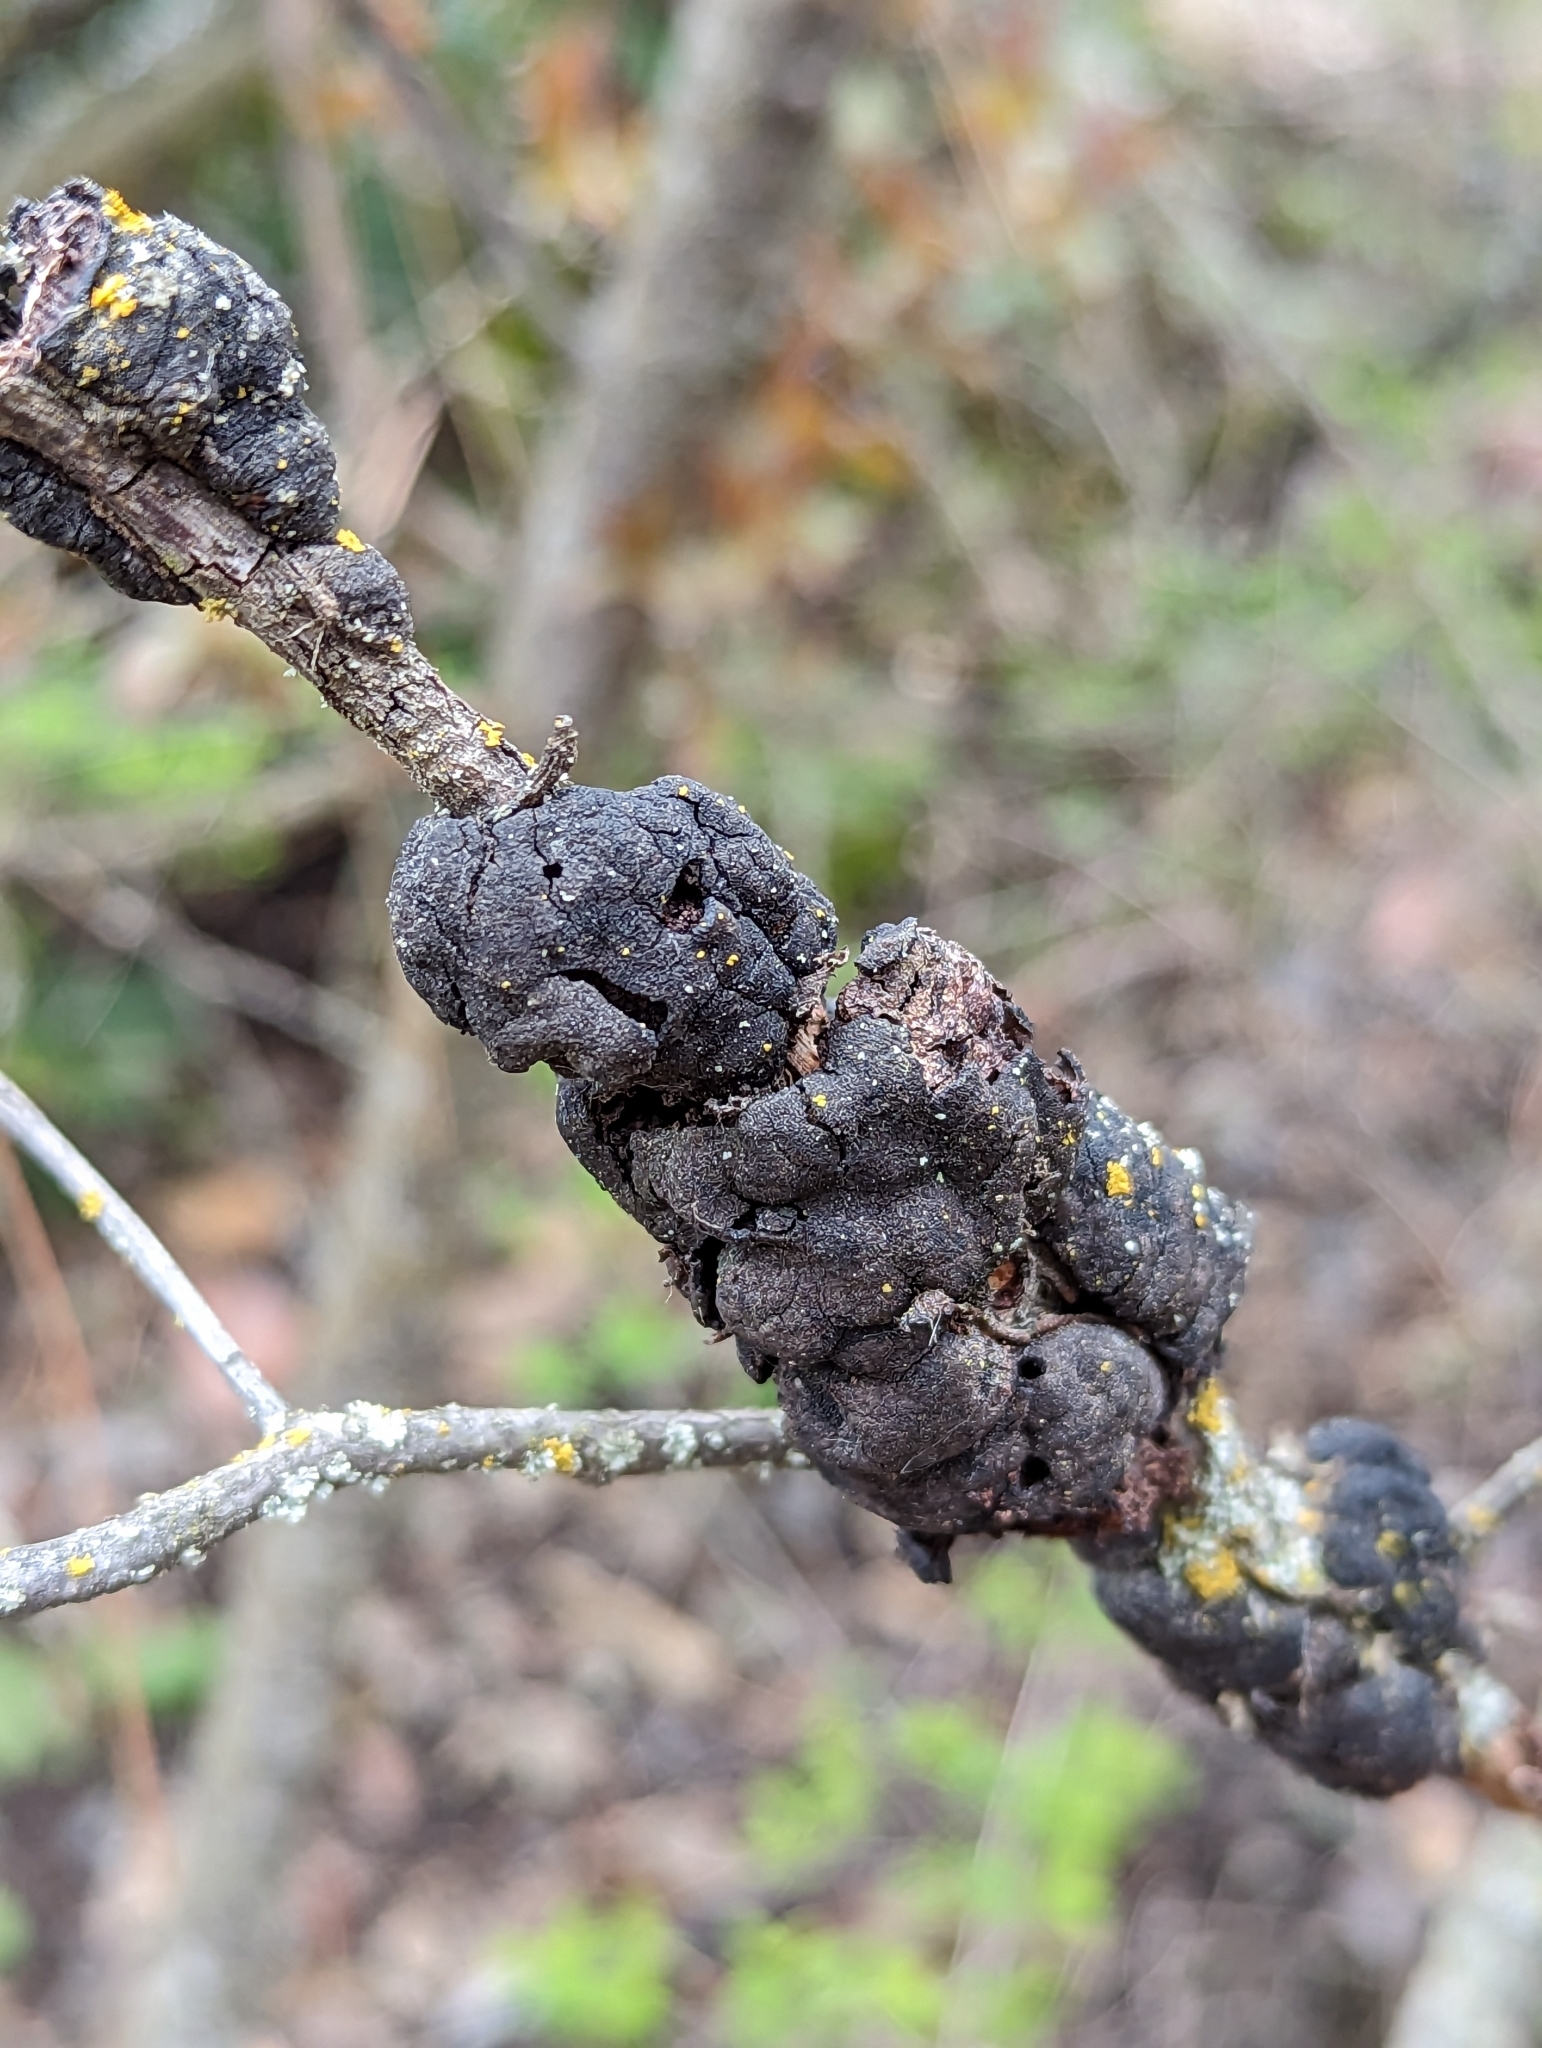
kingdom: Fungi
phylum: Ascomycota
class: Dothideomycetes
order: Venturiales
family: Venturiaceae
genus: Apiosporina
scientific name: Apiosporina morbosa
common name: Black knot
